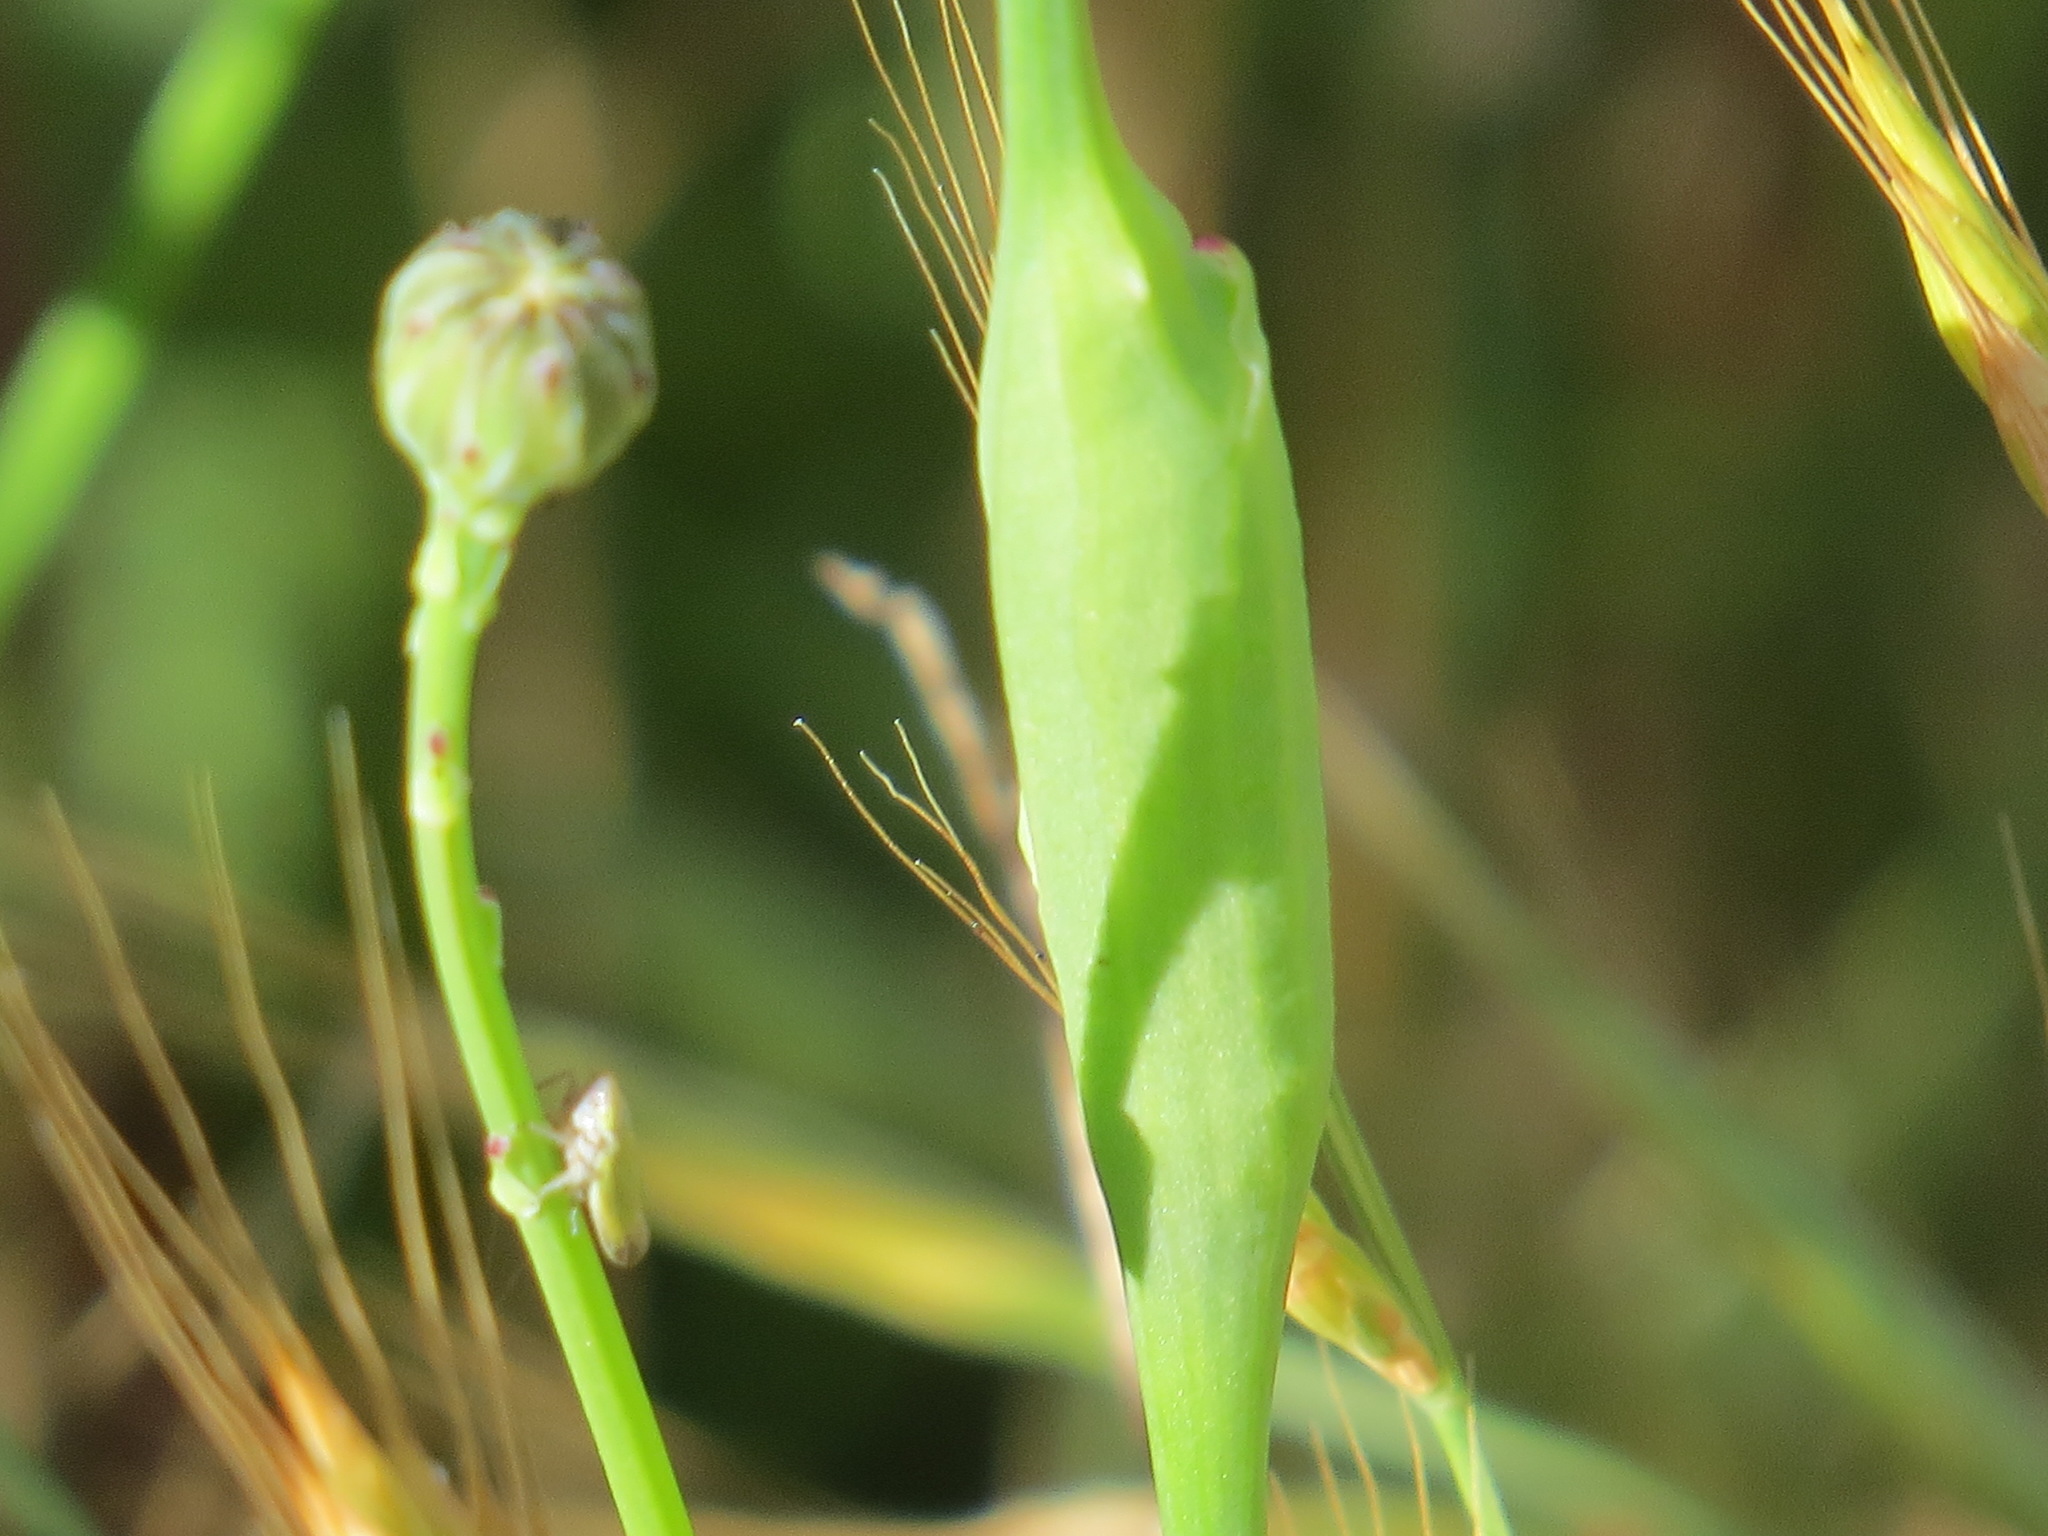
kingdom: Animalia
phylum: Arthropoda
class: Insecta
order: Hymenoptera
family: Cynipidae
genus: Phanacis
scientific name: Phanacis hypochoeridis
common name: Gall wasp
